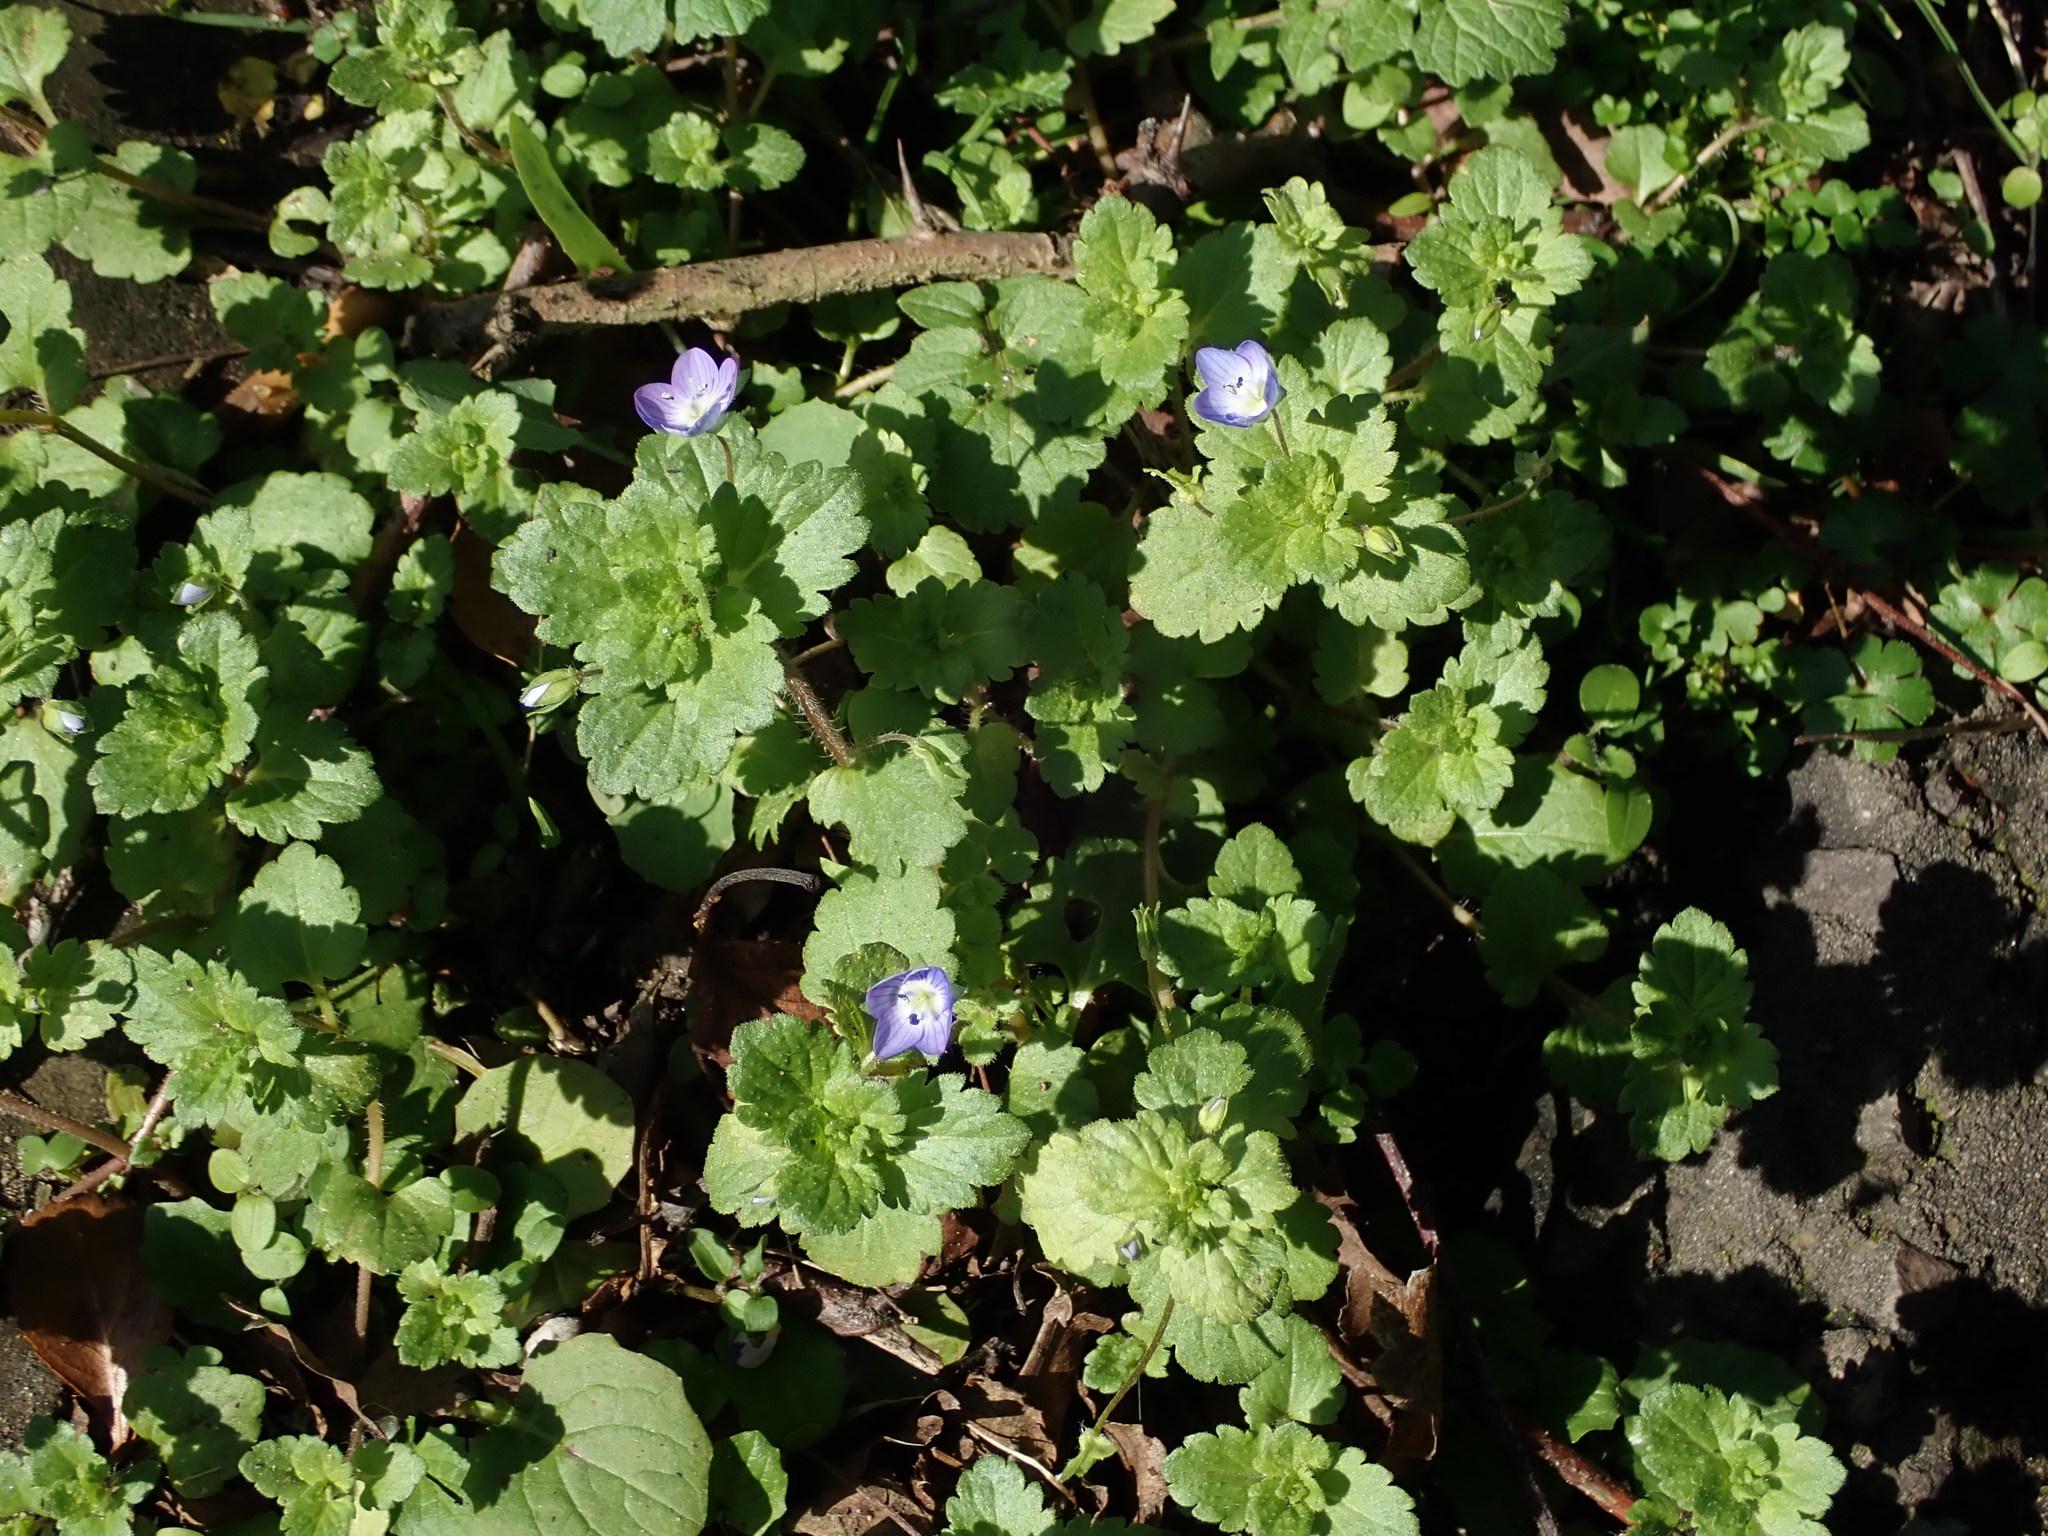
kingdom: Plantae
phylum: Tracheophyta
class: Magnoliopsida
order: Lamiales
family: Plantaginaceae
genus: Veronica
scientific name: Veronica persica
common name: Common field-speedwell
